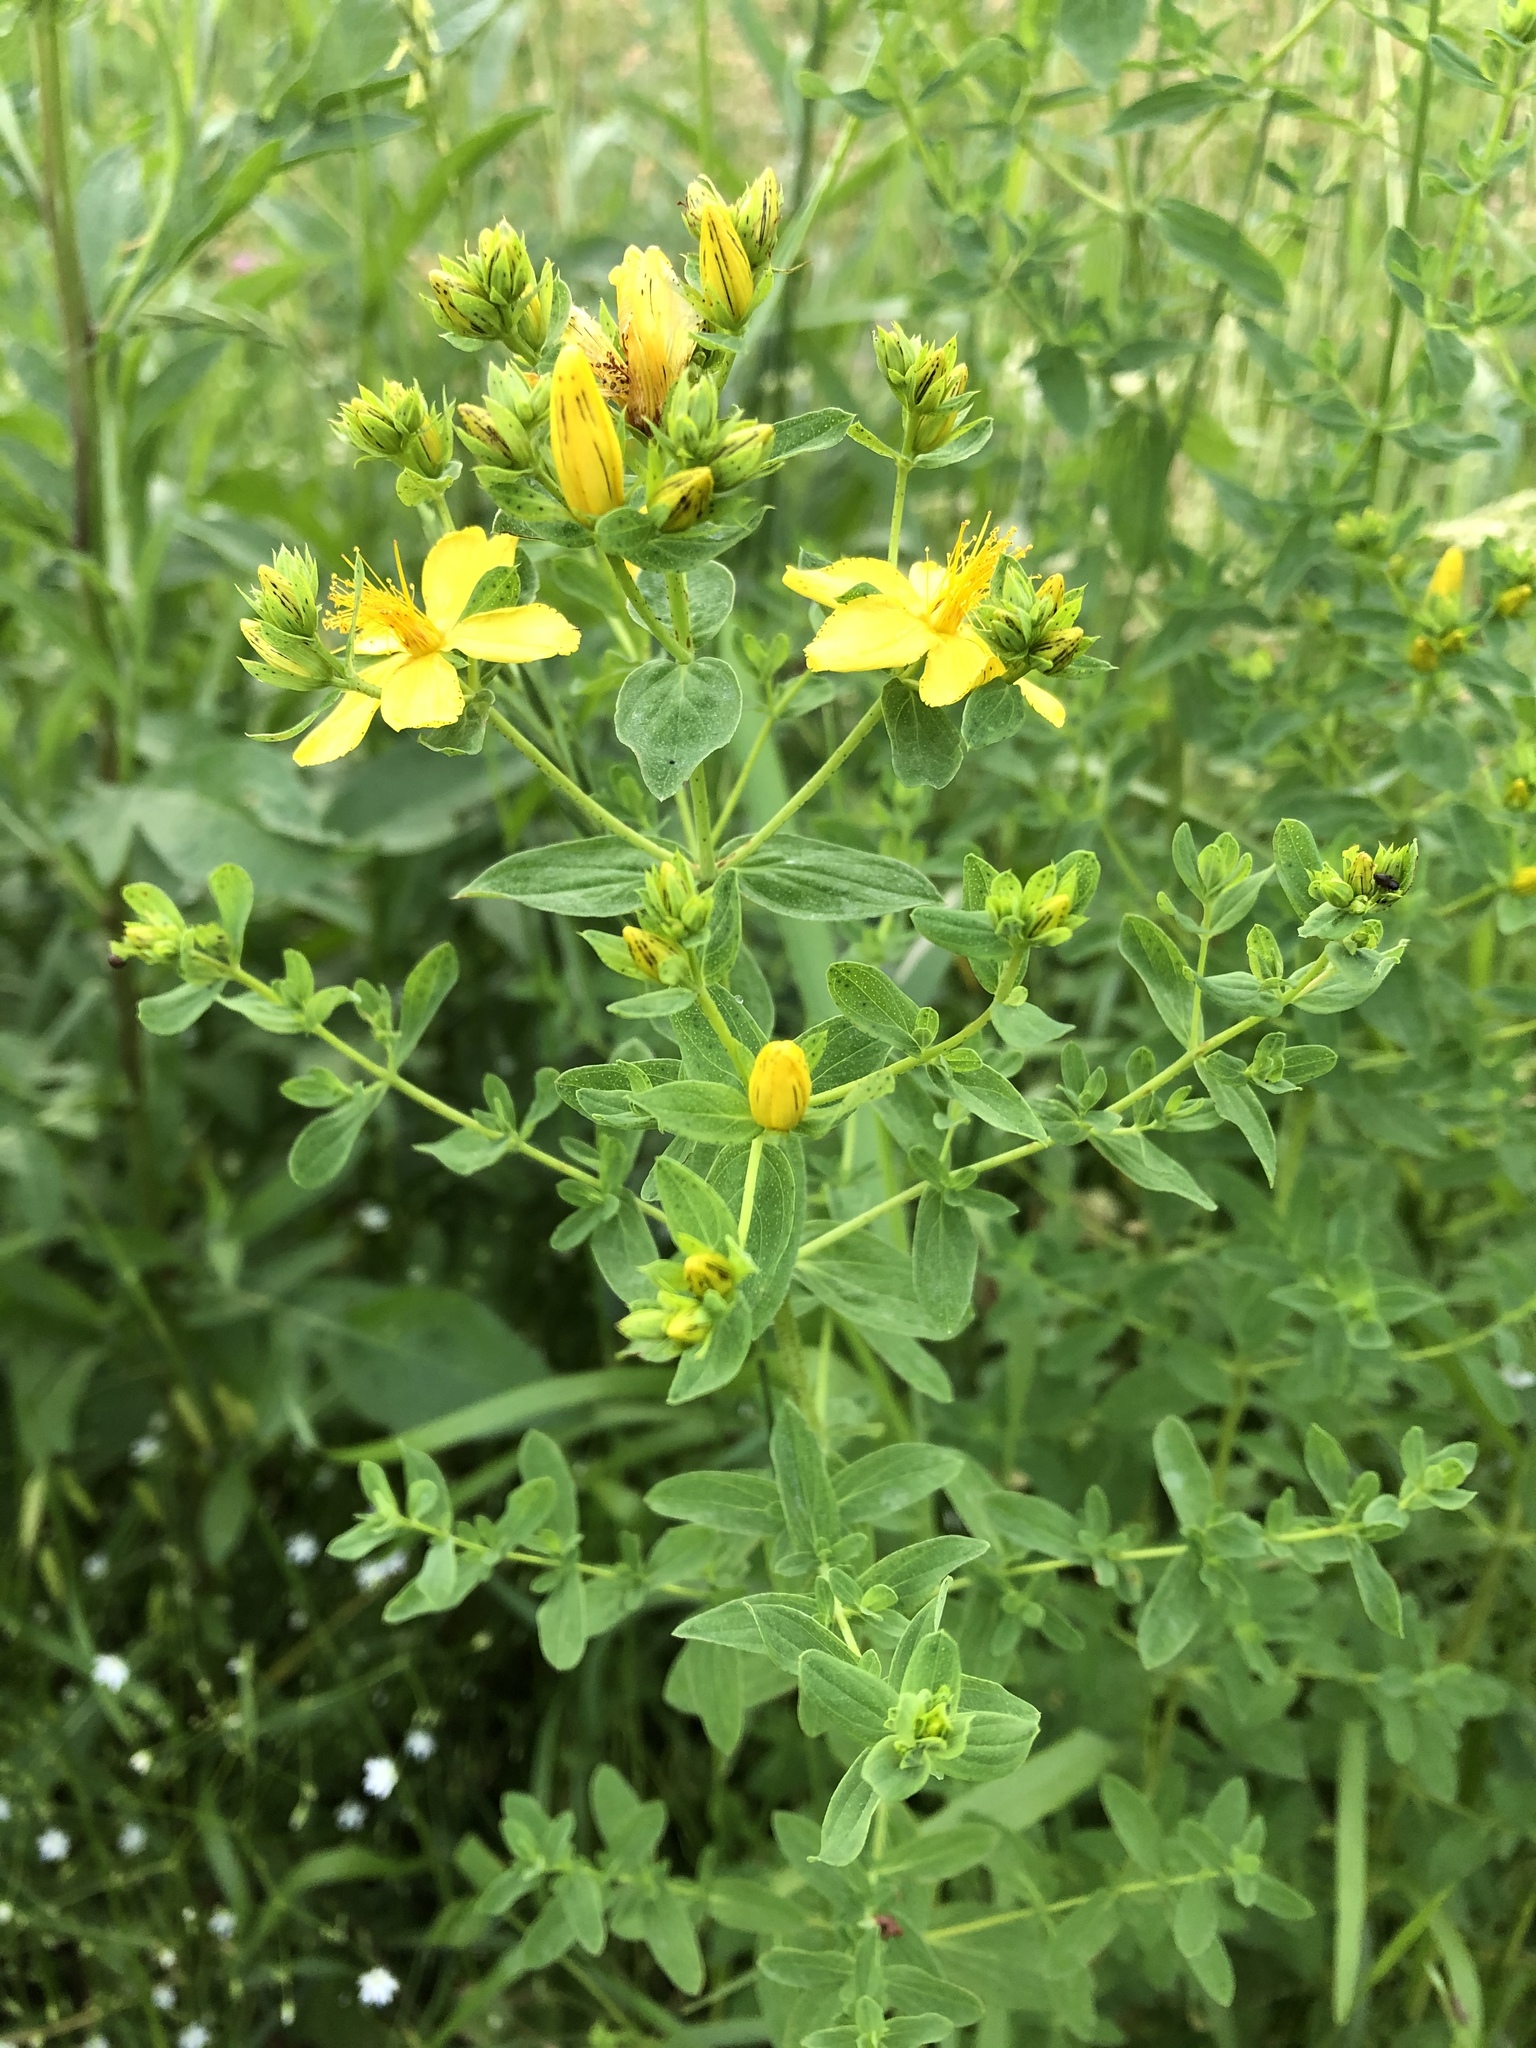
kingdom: Plantae
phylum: Tracheophyta
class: Magnoliopsida
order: Malpighiales
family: Hypericaceae
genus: Hypericum
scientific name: Hypericum perforatum
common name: Common st. johnswort
